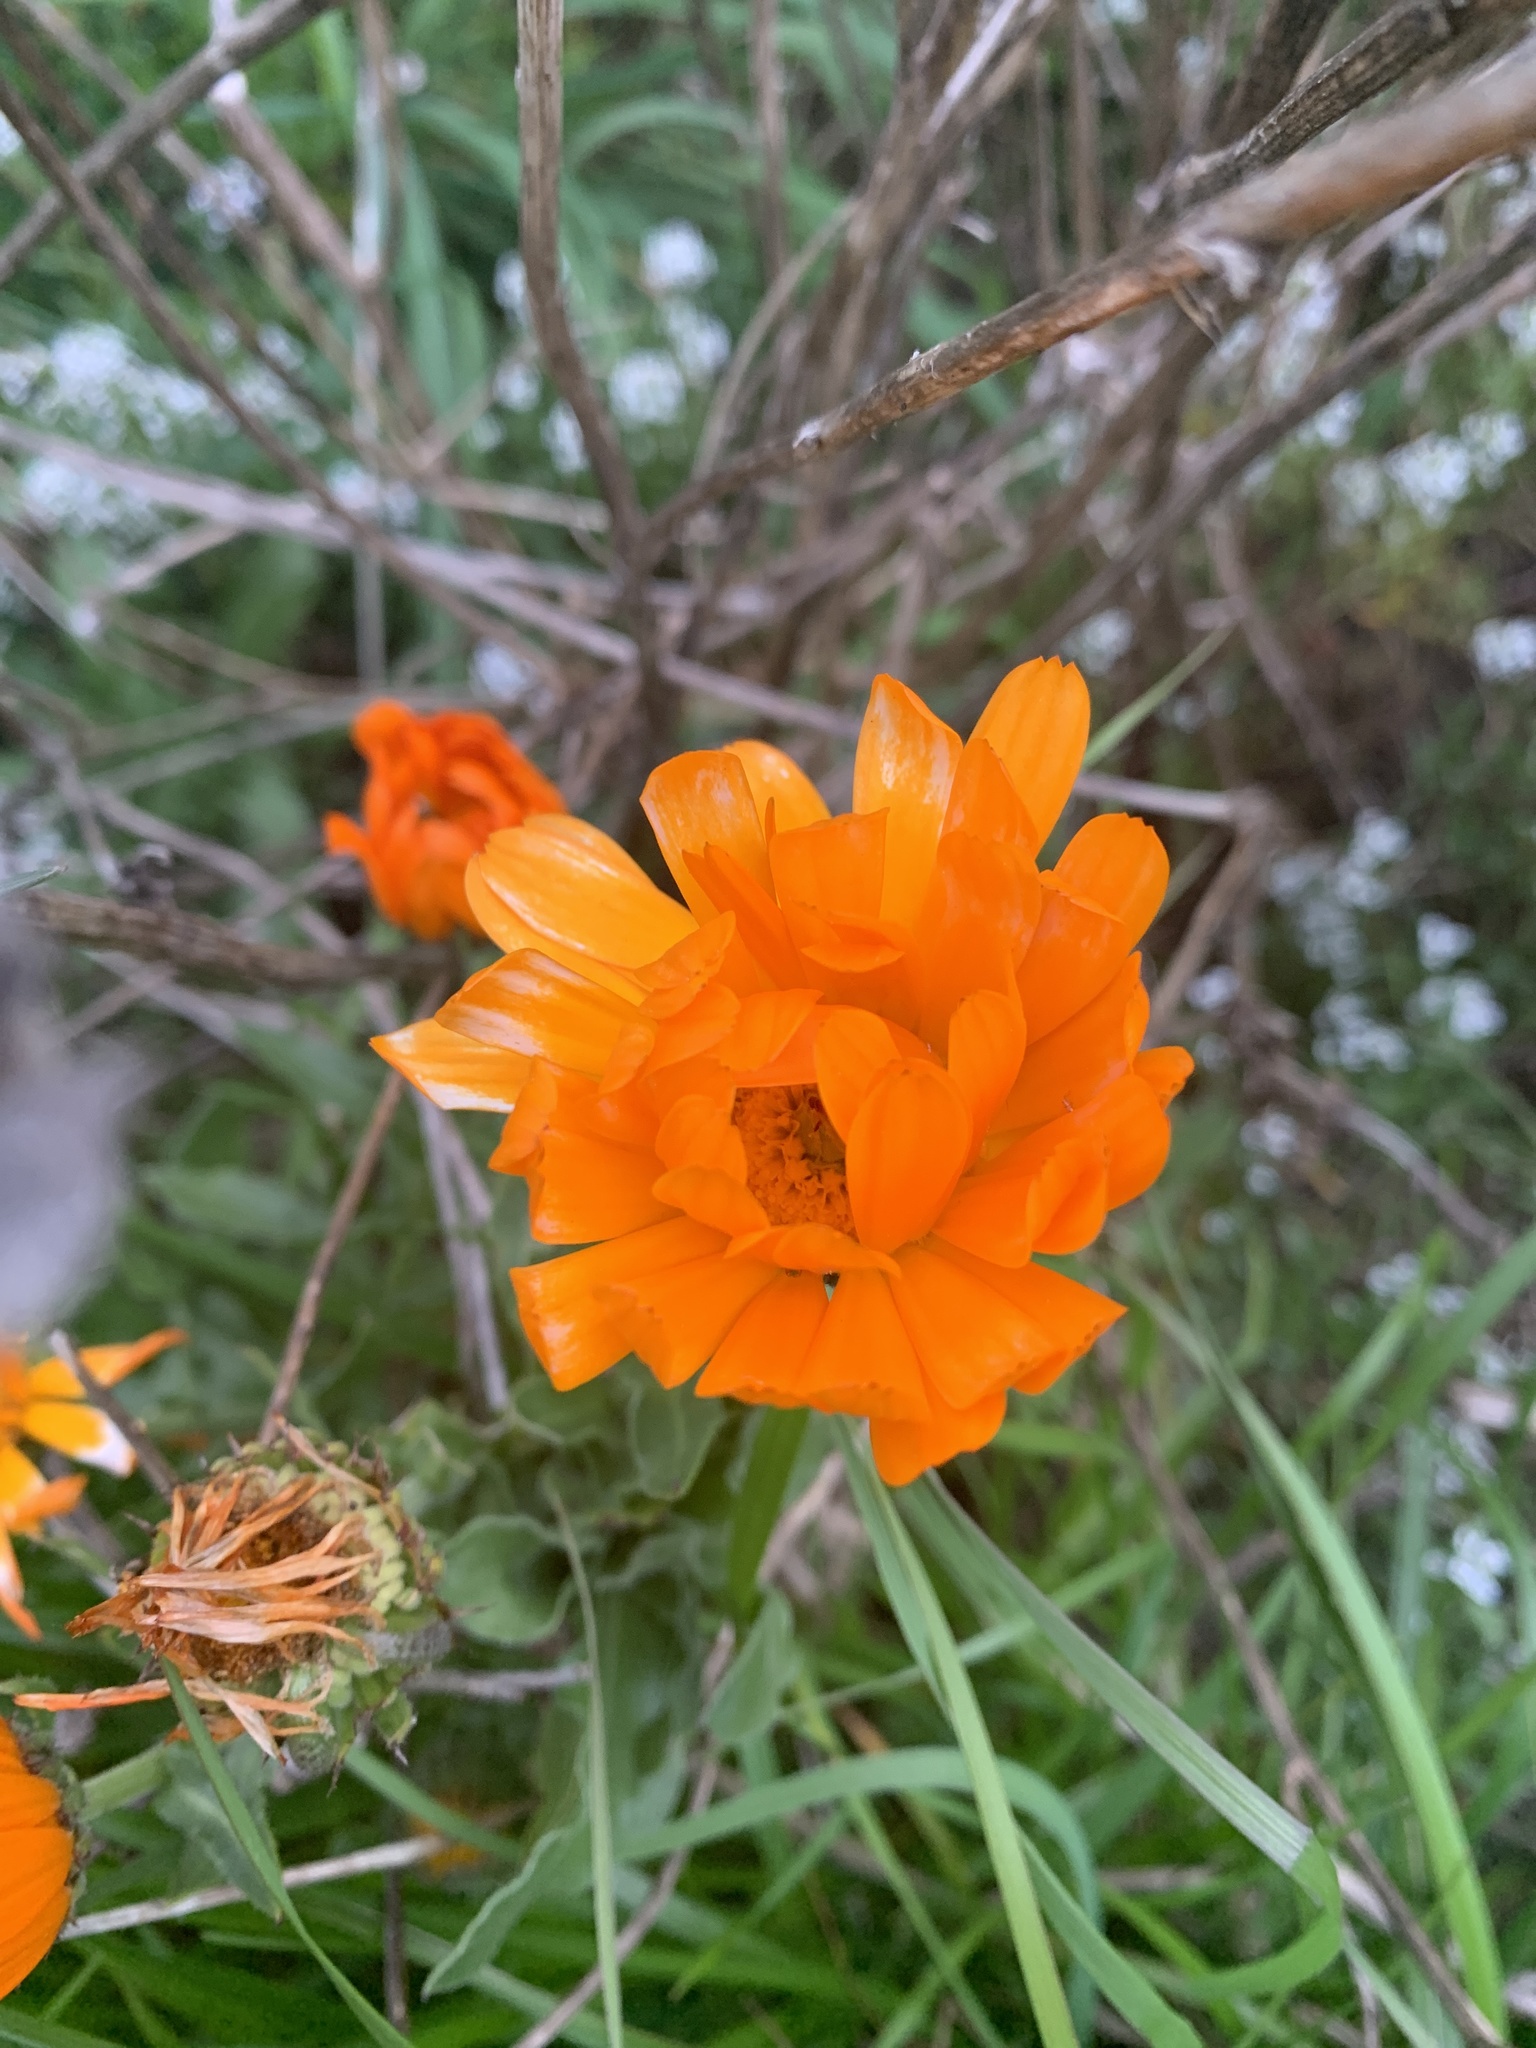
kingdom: Plantae
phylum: Tracheophyta
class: Magnoliopsida
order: Asterales
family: Asteraceae
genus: Calendula
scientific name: Calendula officinalis
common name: Pot marigold
